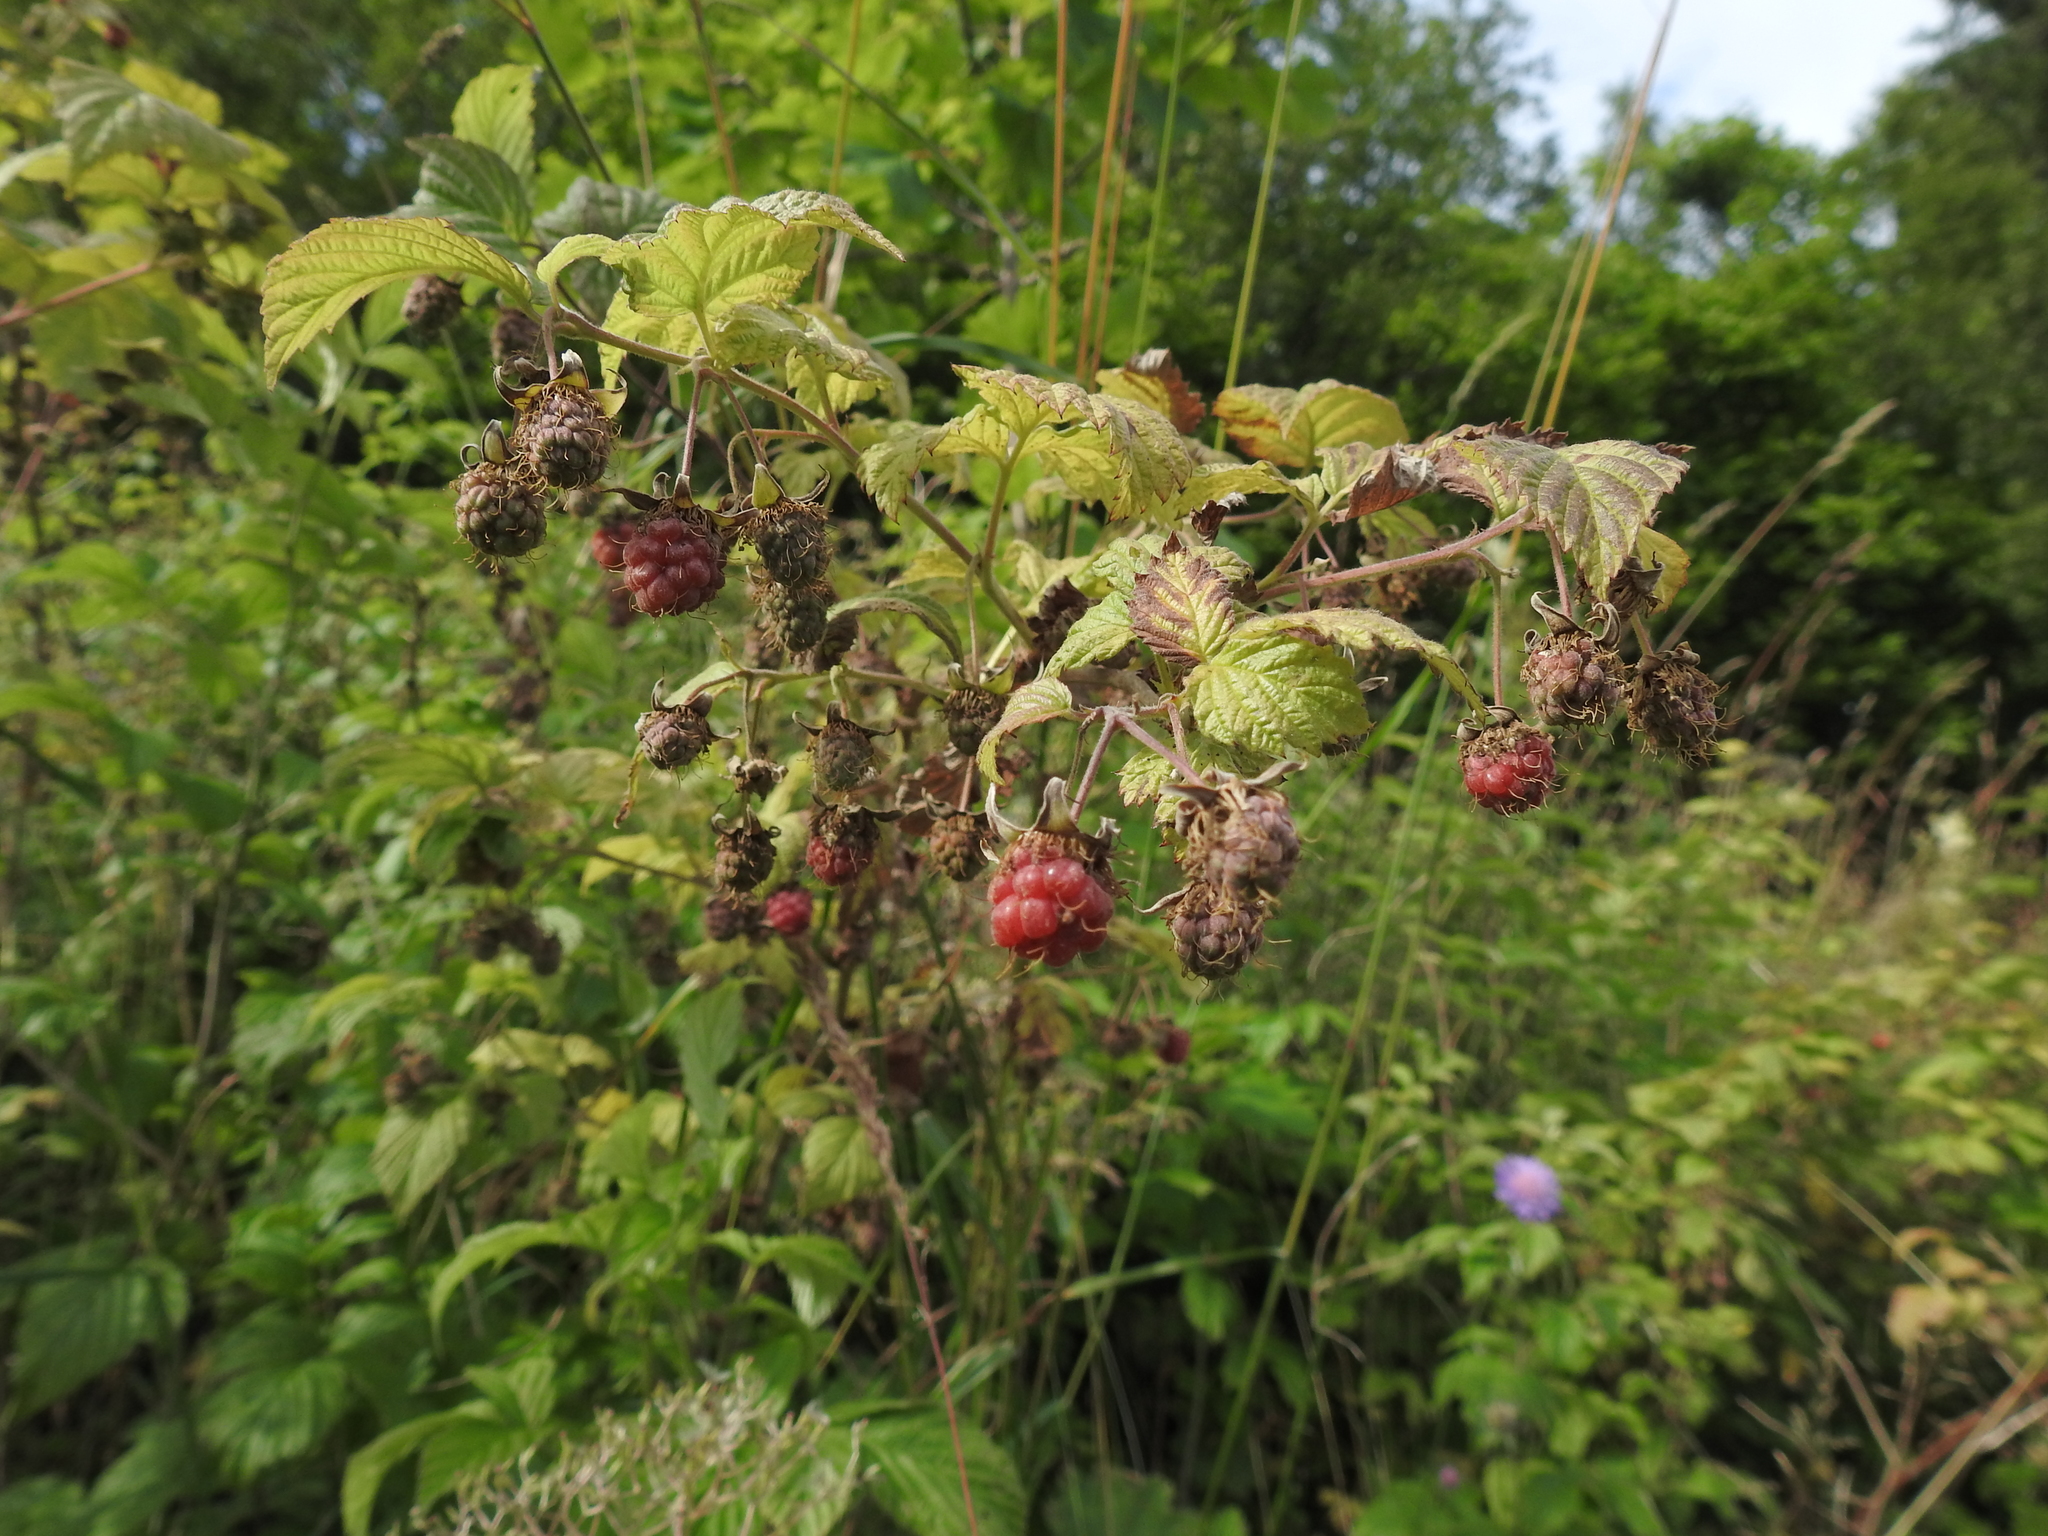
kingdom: Plantae
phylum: Tracheophyta
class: Magnoliopsida
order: Rosales
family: Rosaceae
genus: Rubus
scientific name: Rubus idaeus
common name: Raspberry
